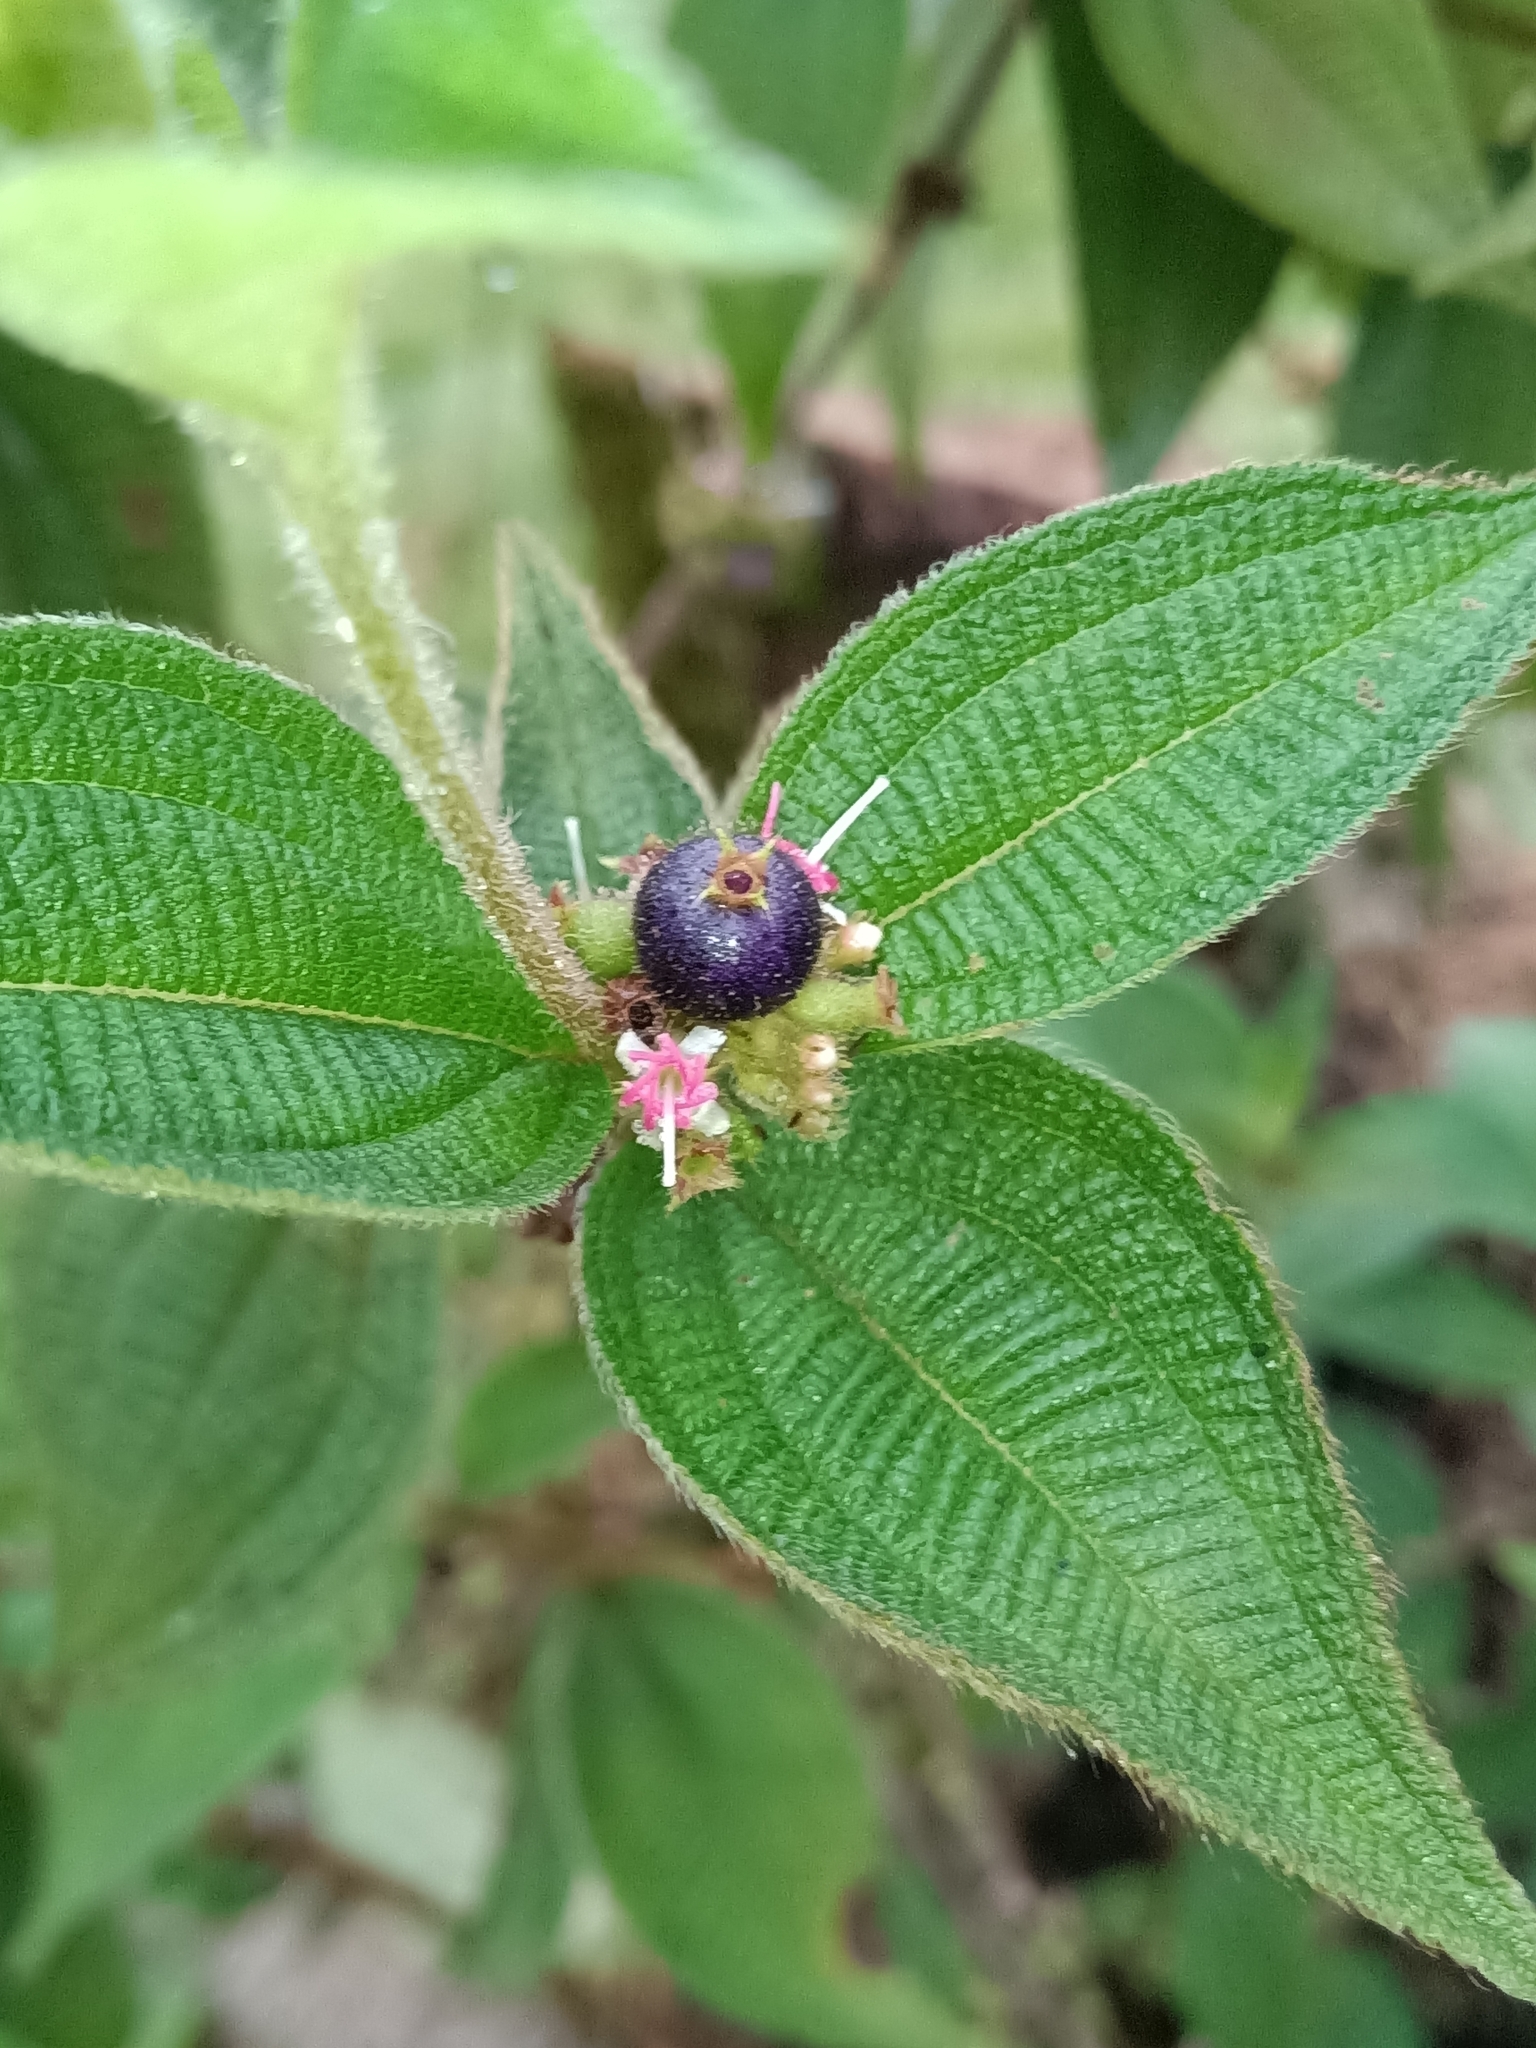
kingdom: Plantae
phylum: Tracheophyta
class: Magnoliopsida
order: Myrtales
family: Melastomataceae
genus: Miconia
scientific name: Miconia sericea
